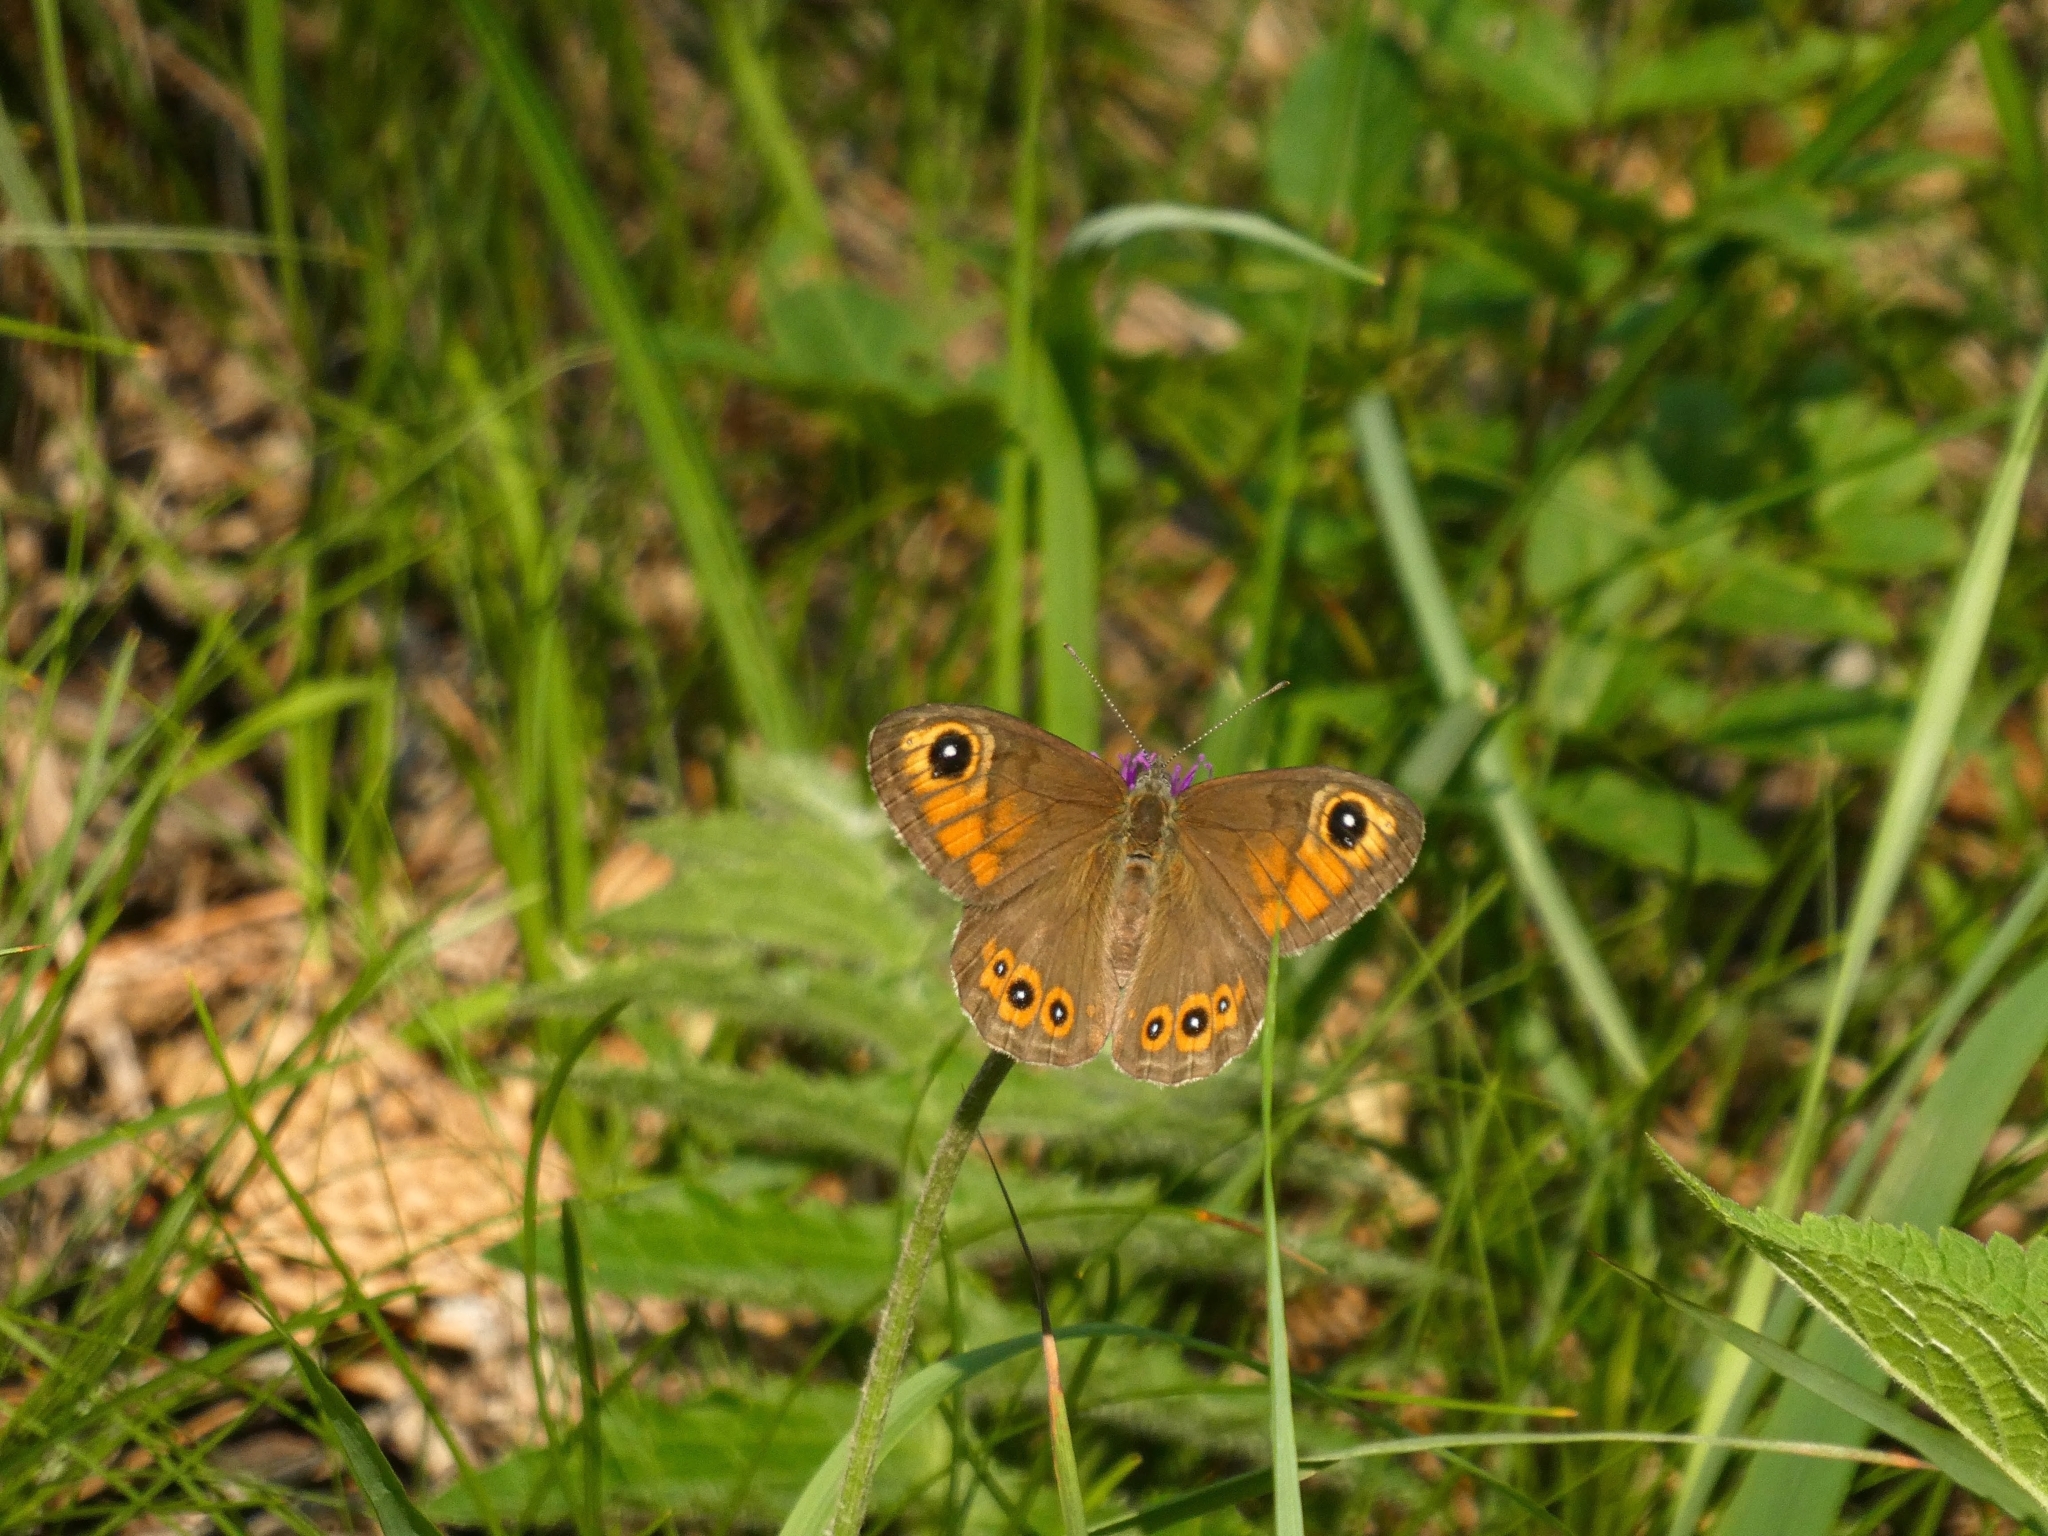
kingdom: Animalia
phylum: Arthropoda
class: Insecta
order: Lepidoptera
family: Nymphalidae
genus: Pararge
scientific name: Pararge Lasiommata maera
